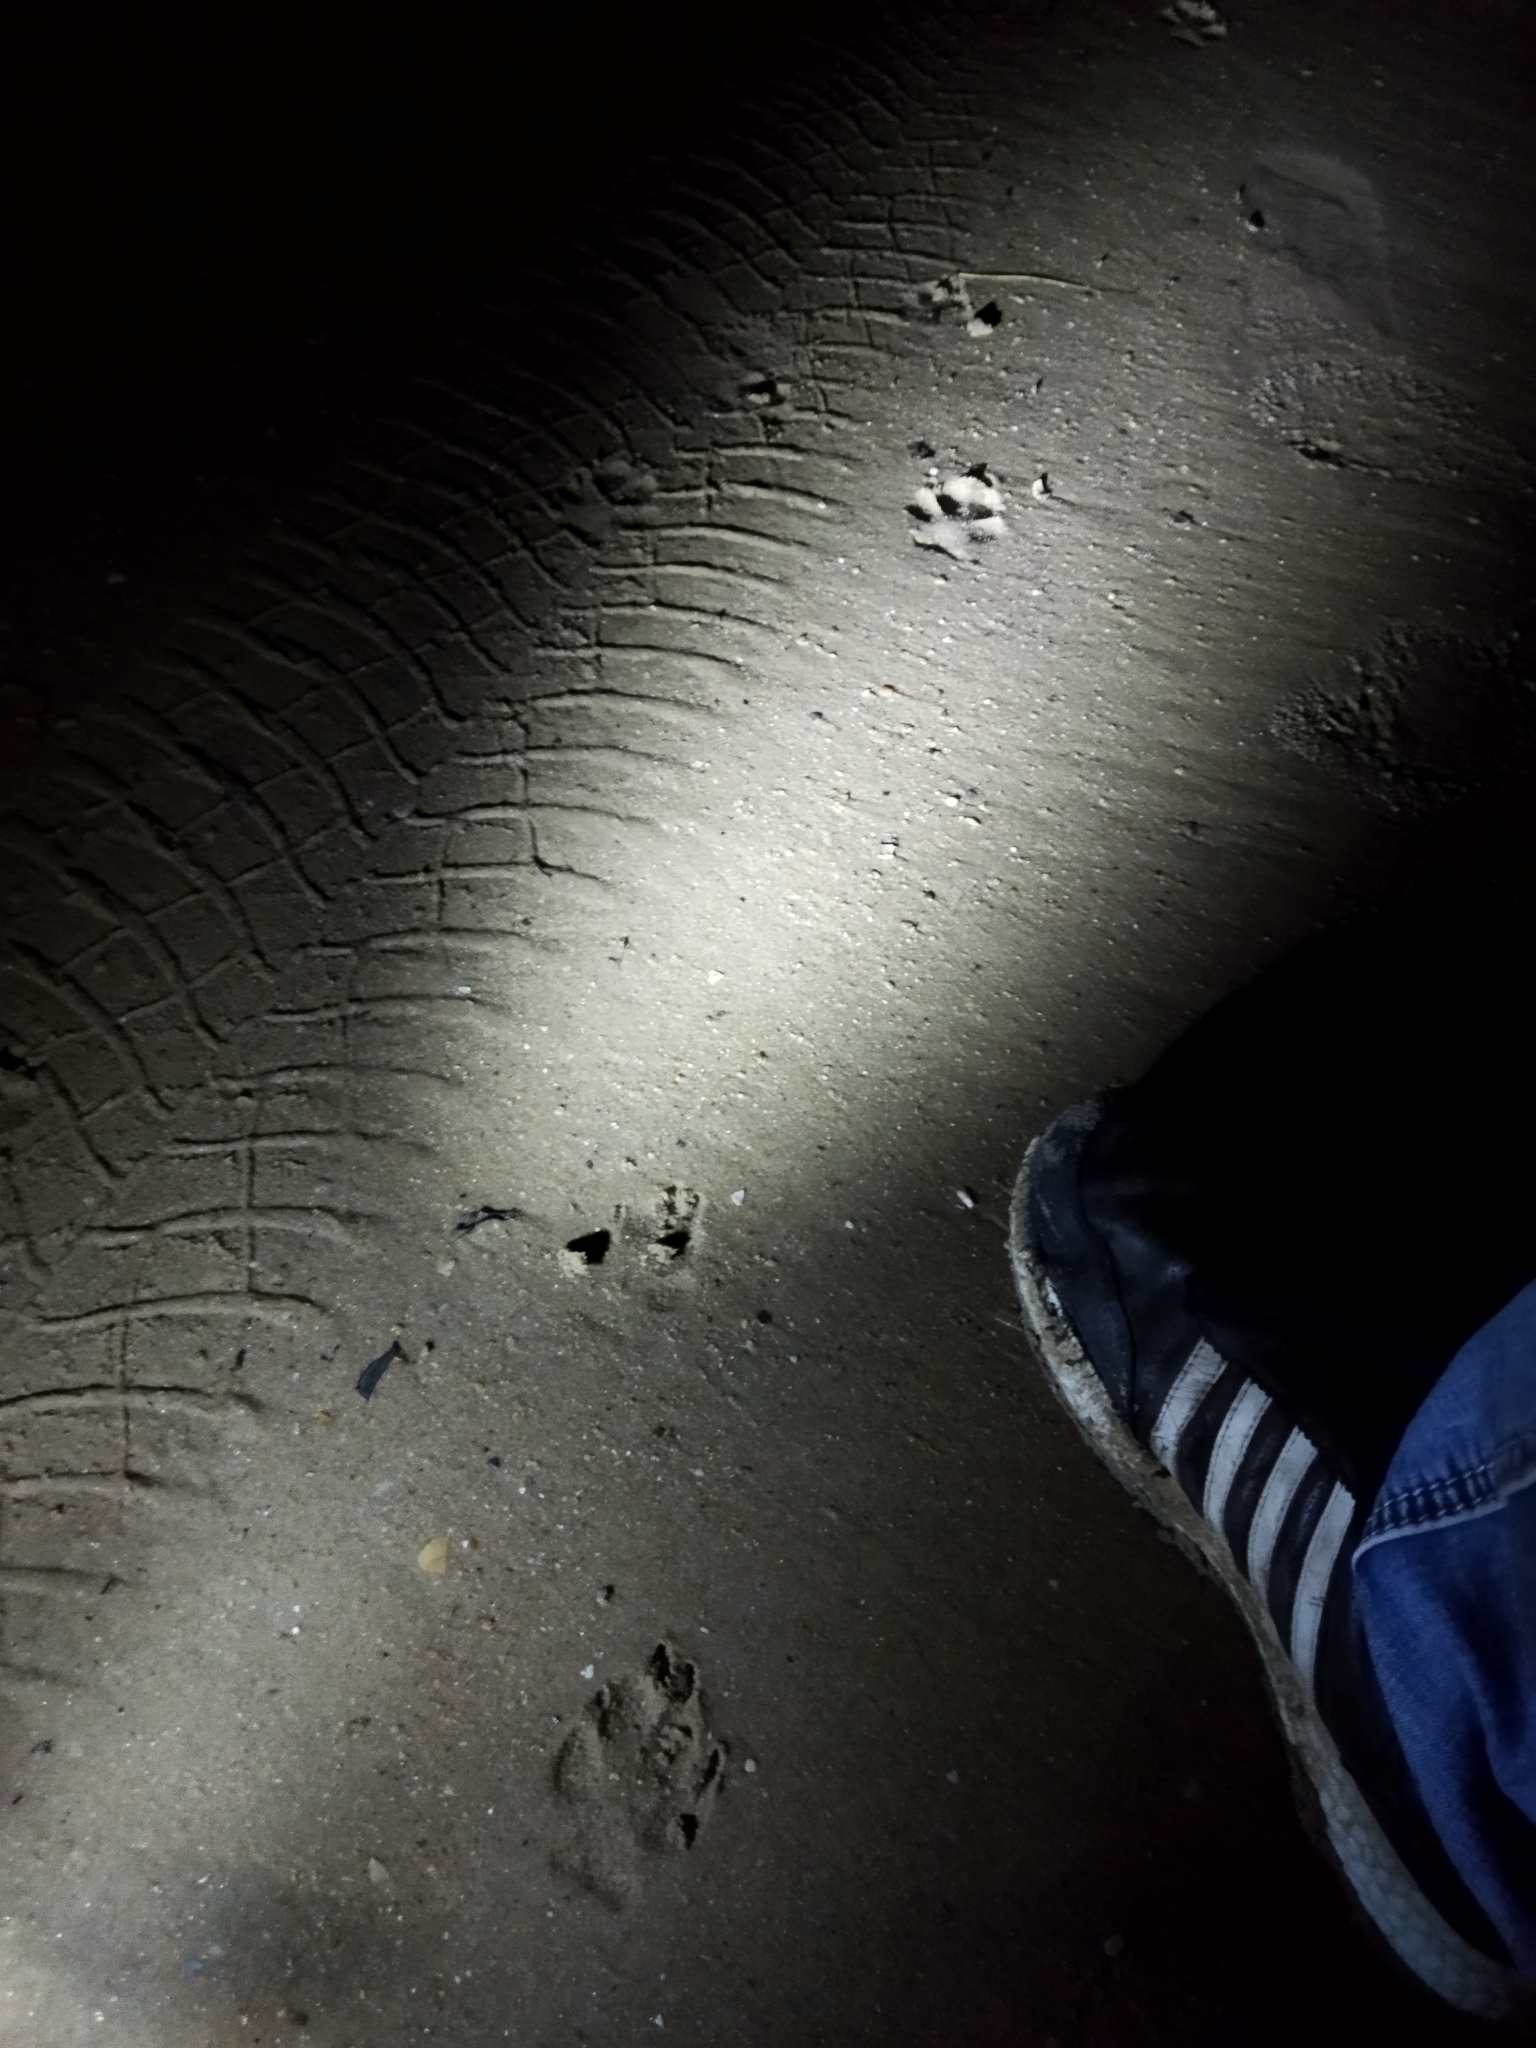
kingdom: Animalia
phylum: Chordata
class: Mammalia
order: Carnivora
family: Canidae
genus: Canis
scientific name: Canis aureus
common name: Golden jackal
